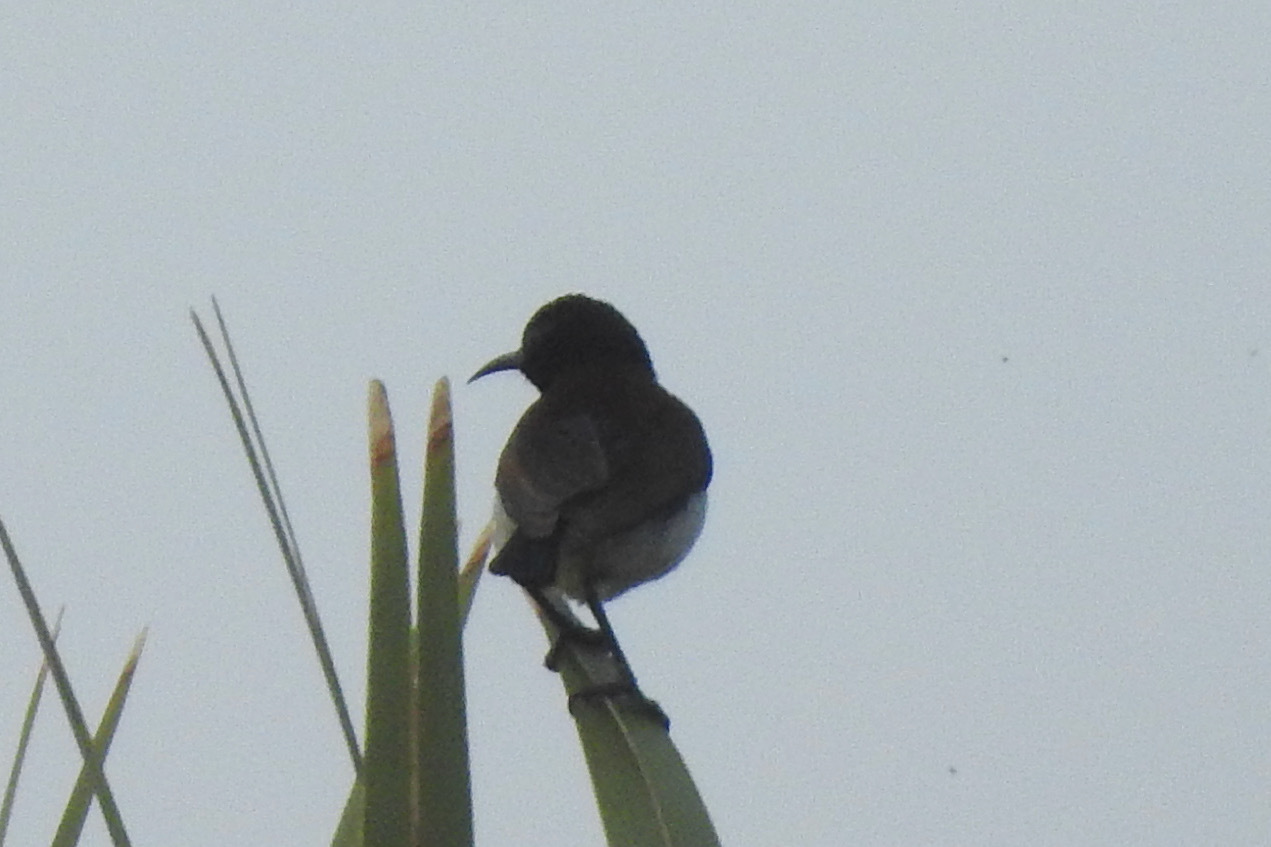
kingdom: Animalia
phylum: Chordata
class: Aves
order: Passeriformes
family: Nectariniidae
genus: Leptocoma
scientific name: Leptocoma zeylonica
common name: Purple-rumped sunbird
